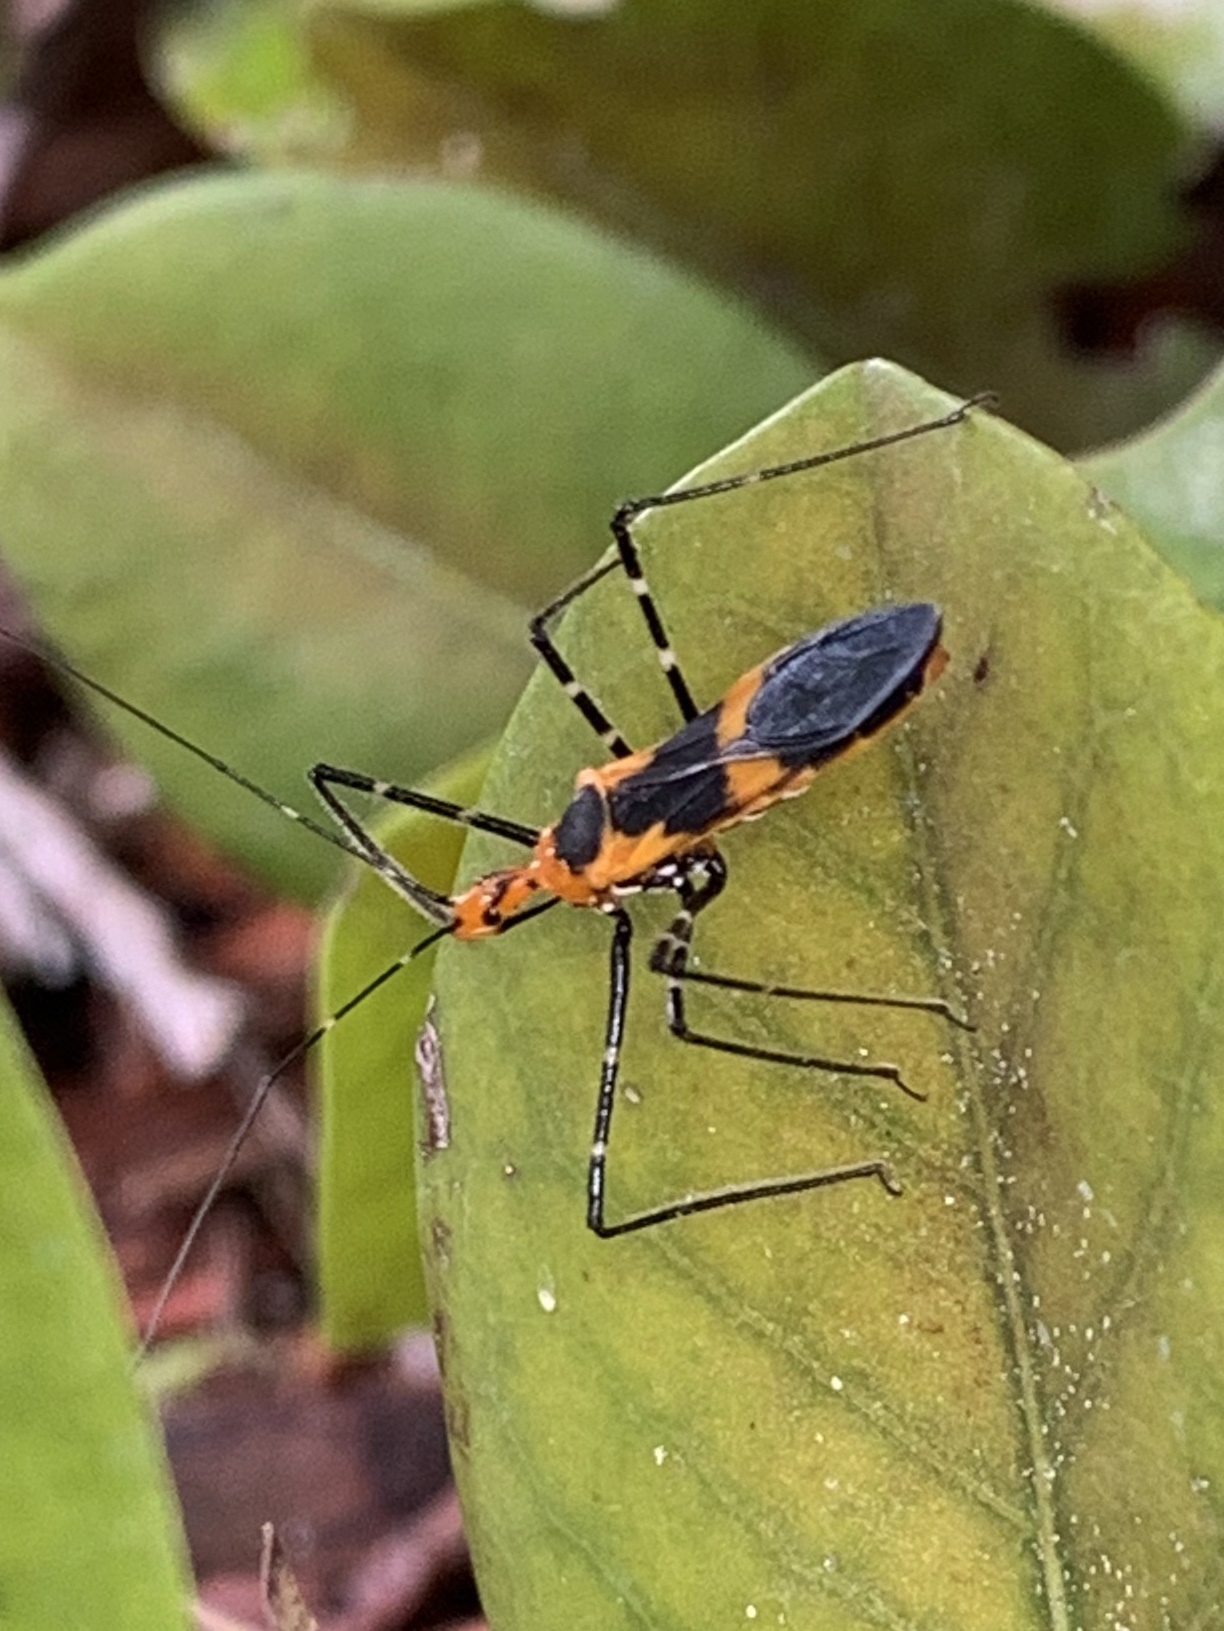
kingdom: Animalia
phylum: Arthropoda
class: Insecta
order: Hemiptera
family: Reduviidae
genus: Zelus
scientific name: Zelus longipes
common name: Milkweed assassin bug
